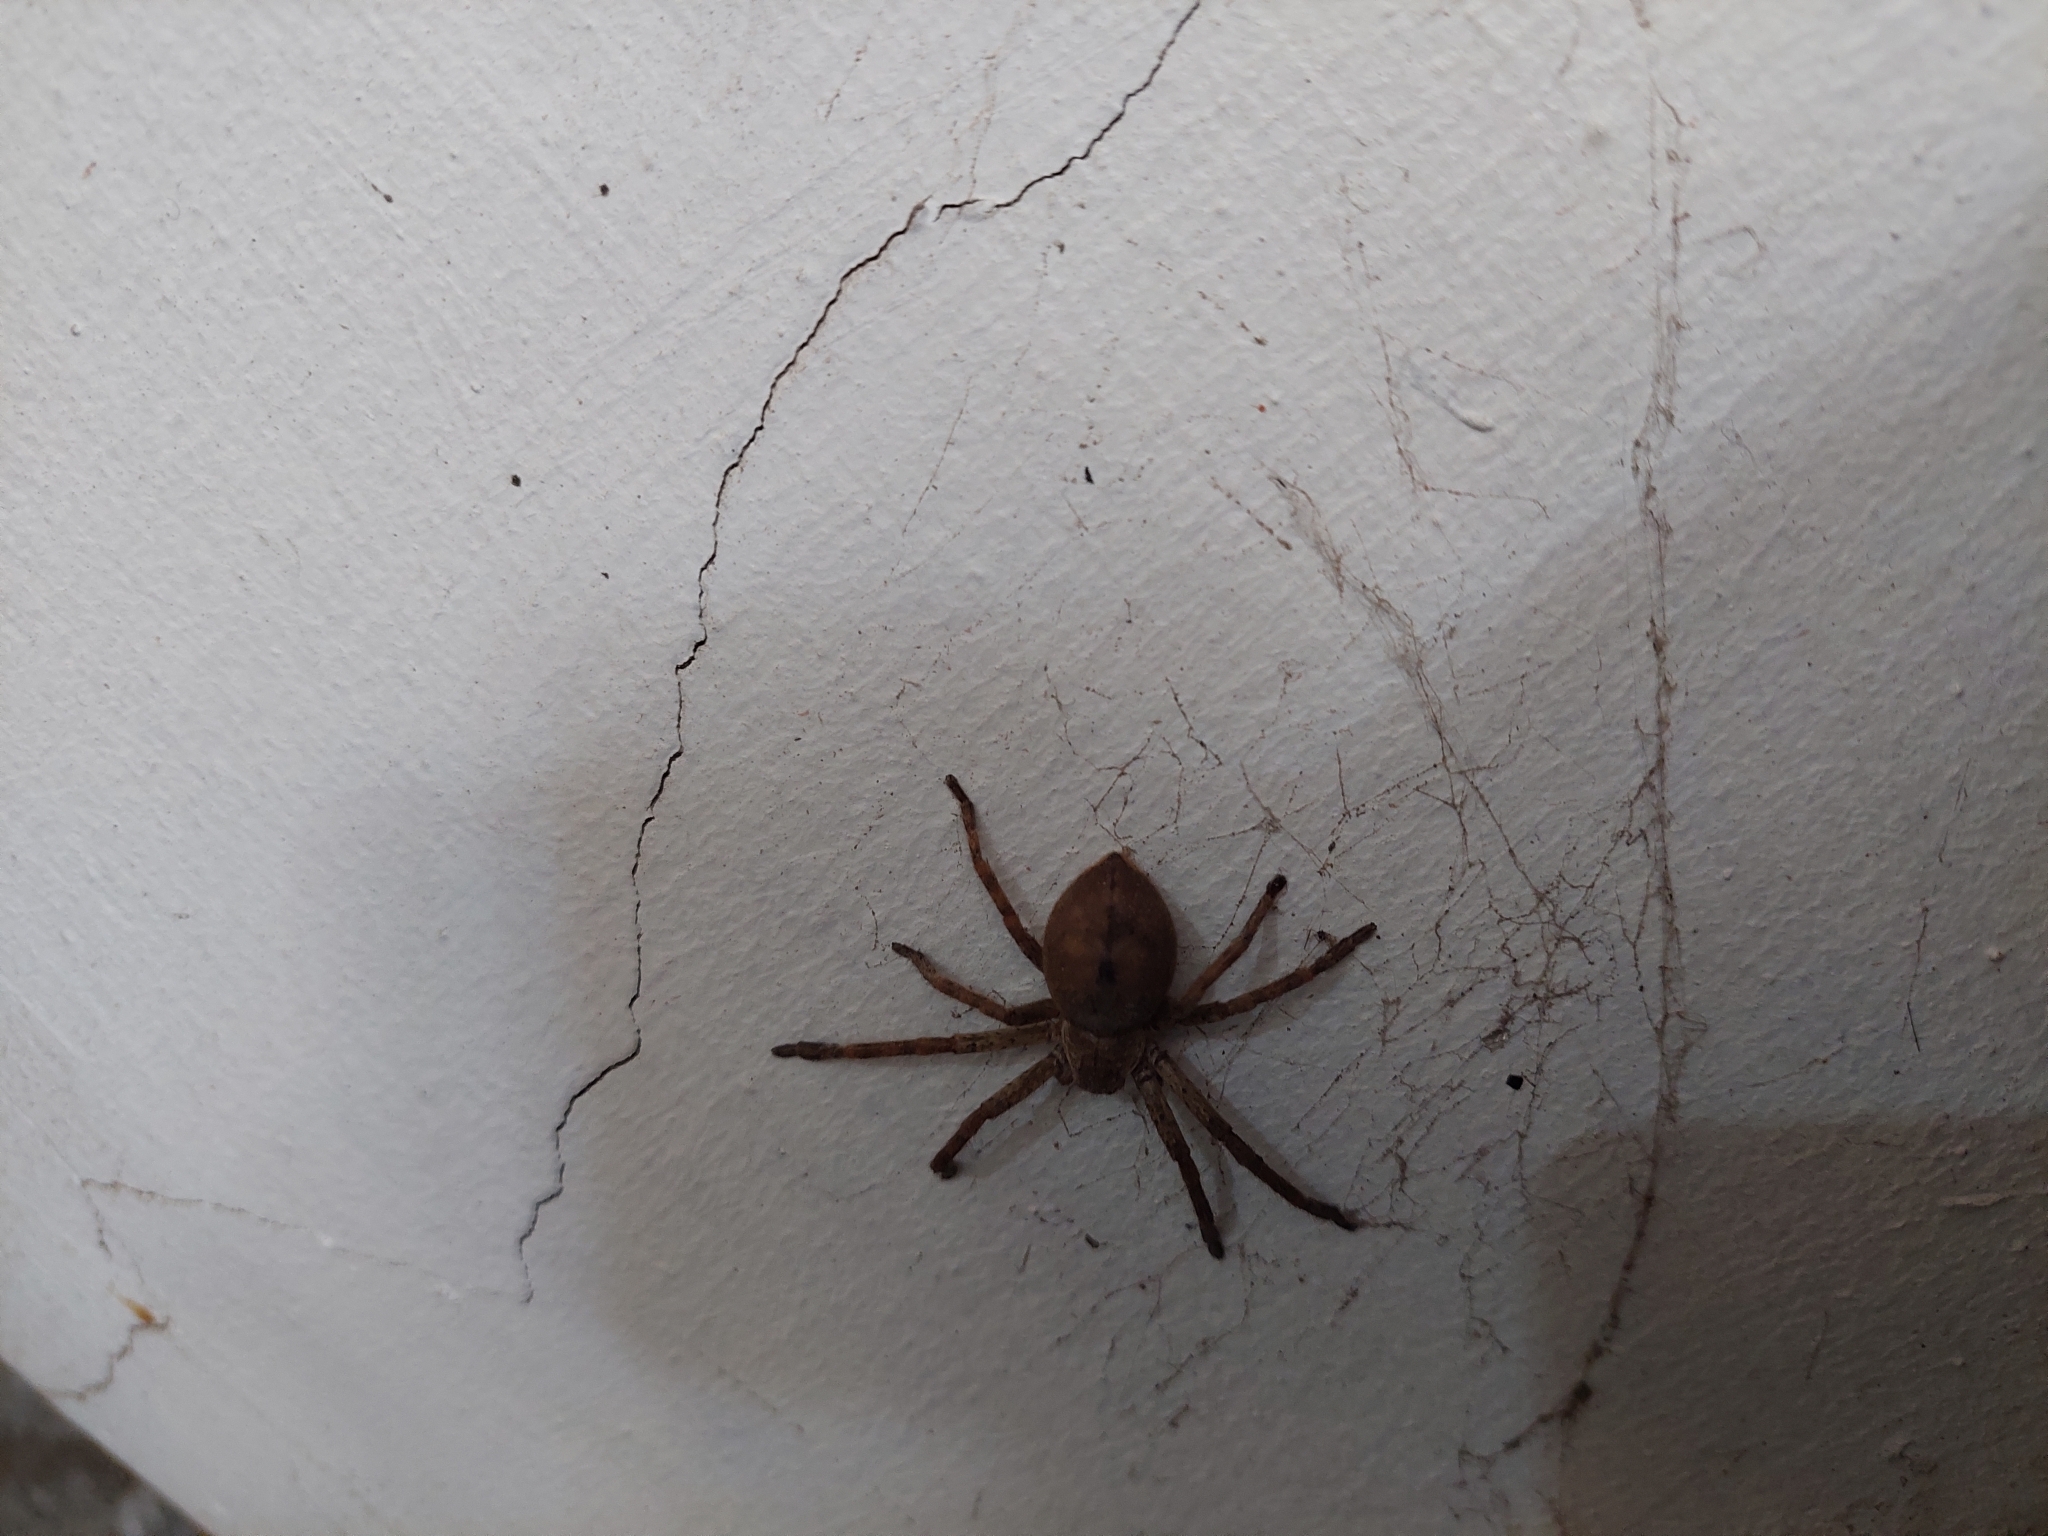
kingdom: Animalia
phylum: Arthropoda
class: Arachnida
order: Araneae
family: Sparassidae
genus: Polybetes
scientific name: Polybetes rapidus
